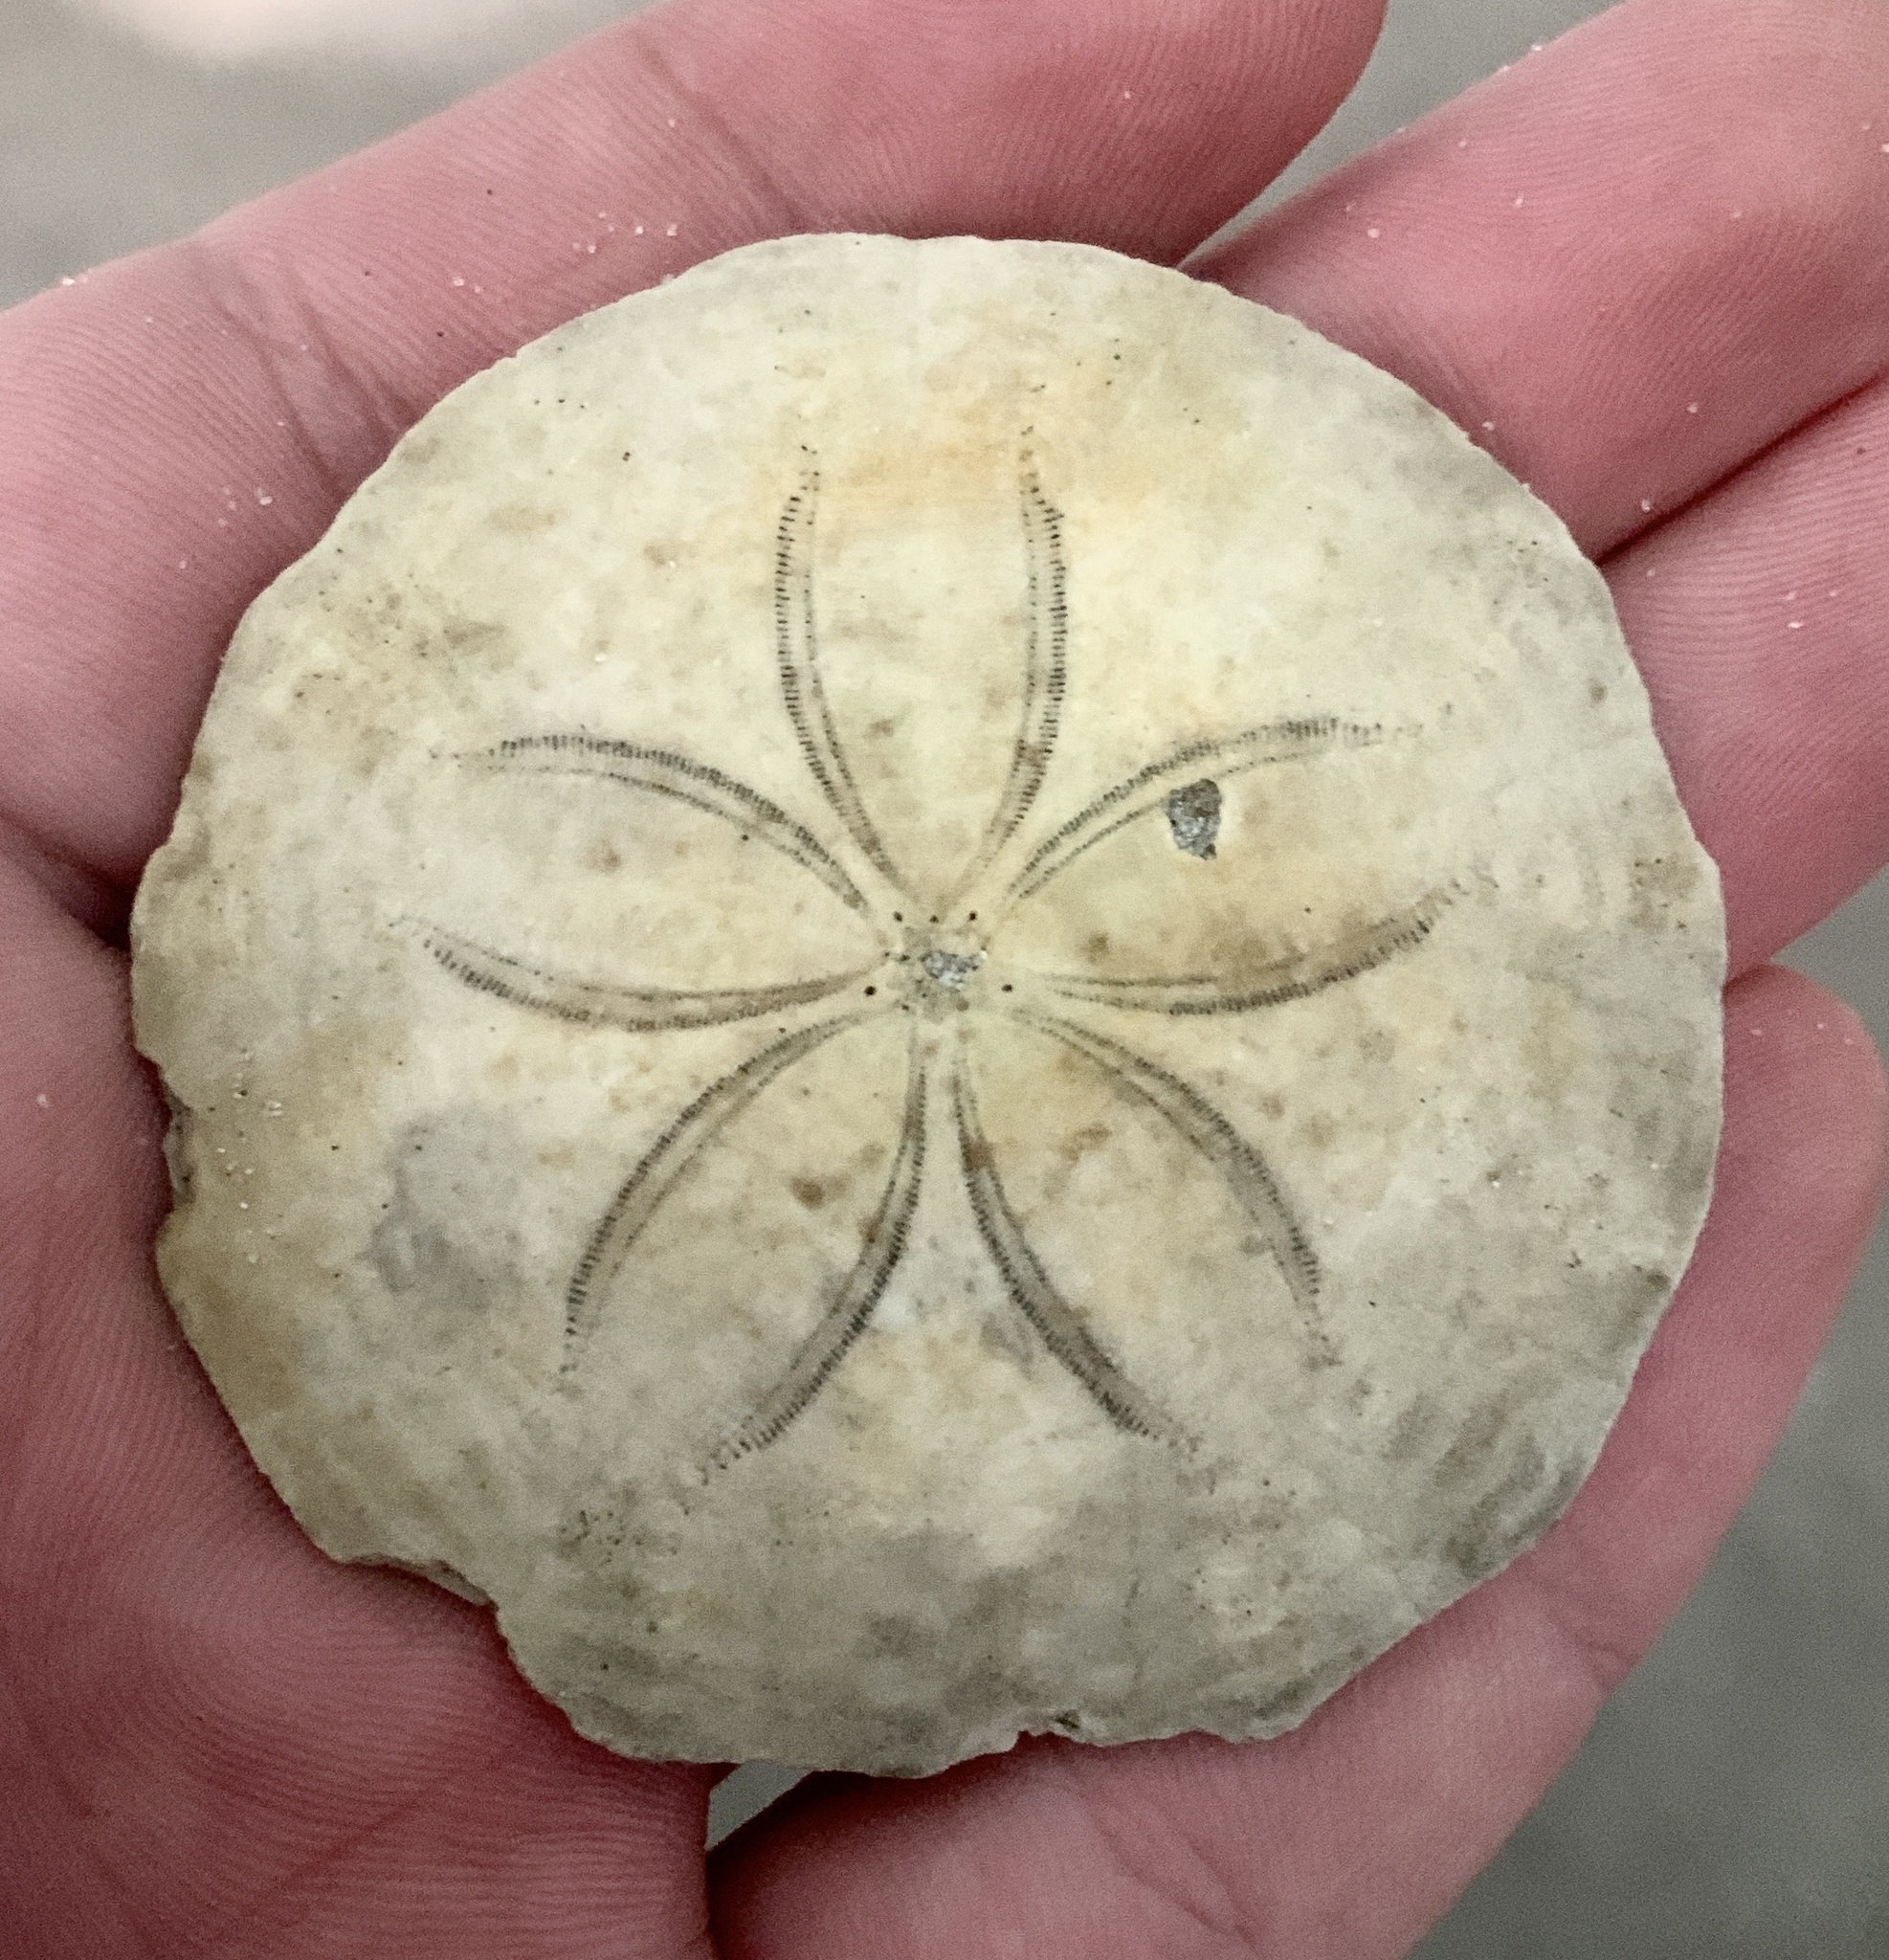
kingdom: Animalia
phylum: Echinodermata
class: Echinoidea
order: Echinolampadacea
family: Echinarachniidae
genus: Echinarachnius
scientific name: Echinarachnius parma
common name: Common sand dollar
